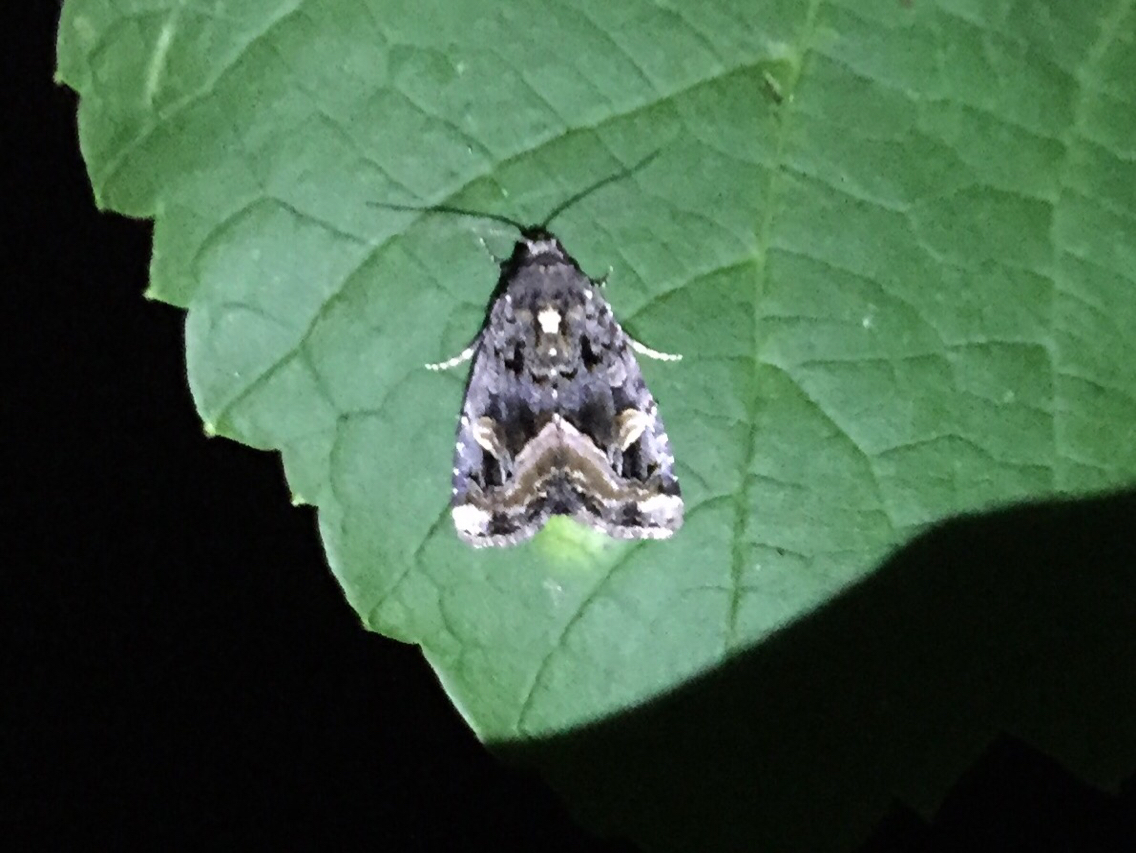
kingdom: Animalia
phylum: Arthropoda
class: Insecta
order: Lepidoptera
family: Noctuidae
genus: Homophoberia
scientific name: Homophoberia apicosa
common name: Black wedge-spot
